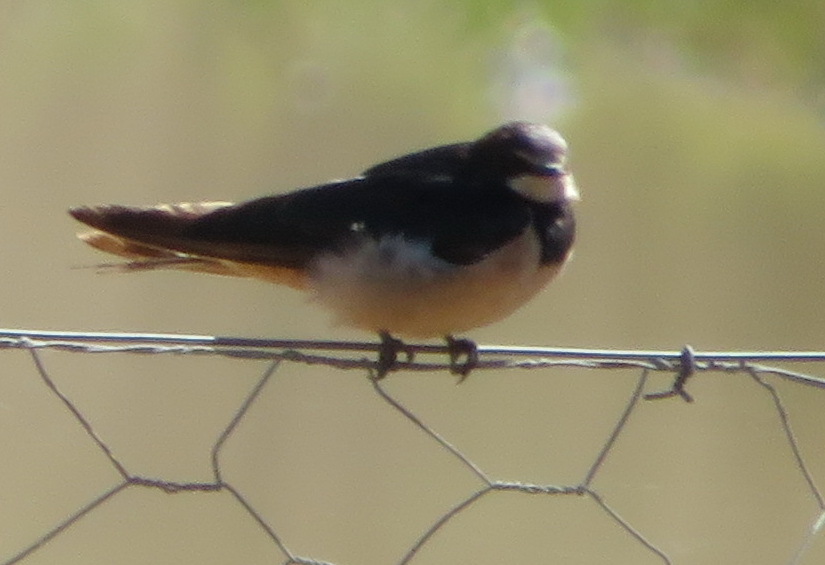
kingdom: Animalia
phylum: Chordata
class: Aves
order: Passeriformes
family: Hirundinidae
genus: Hirundo
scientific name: Hirundo rustica
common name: Barn swallow
